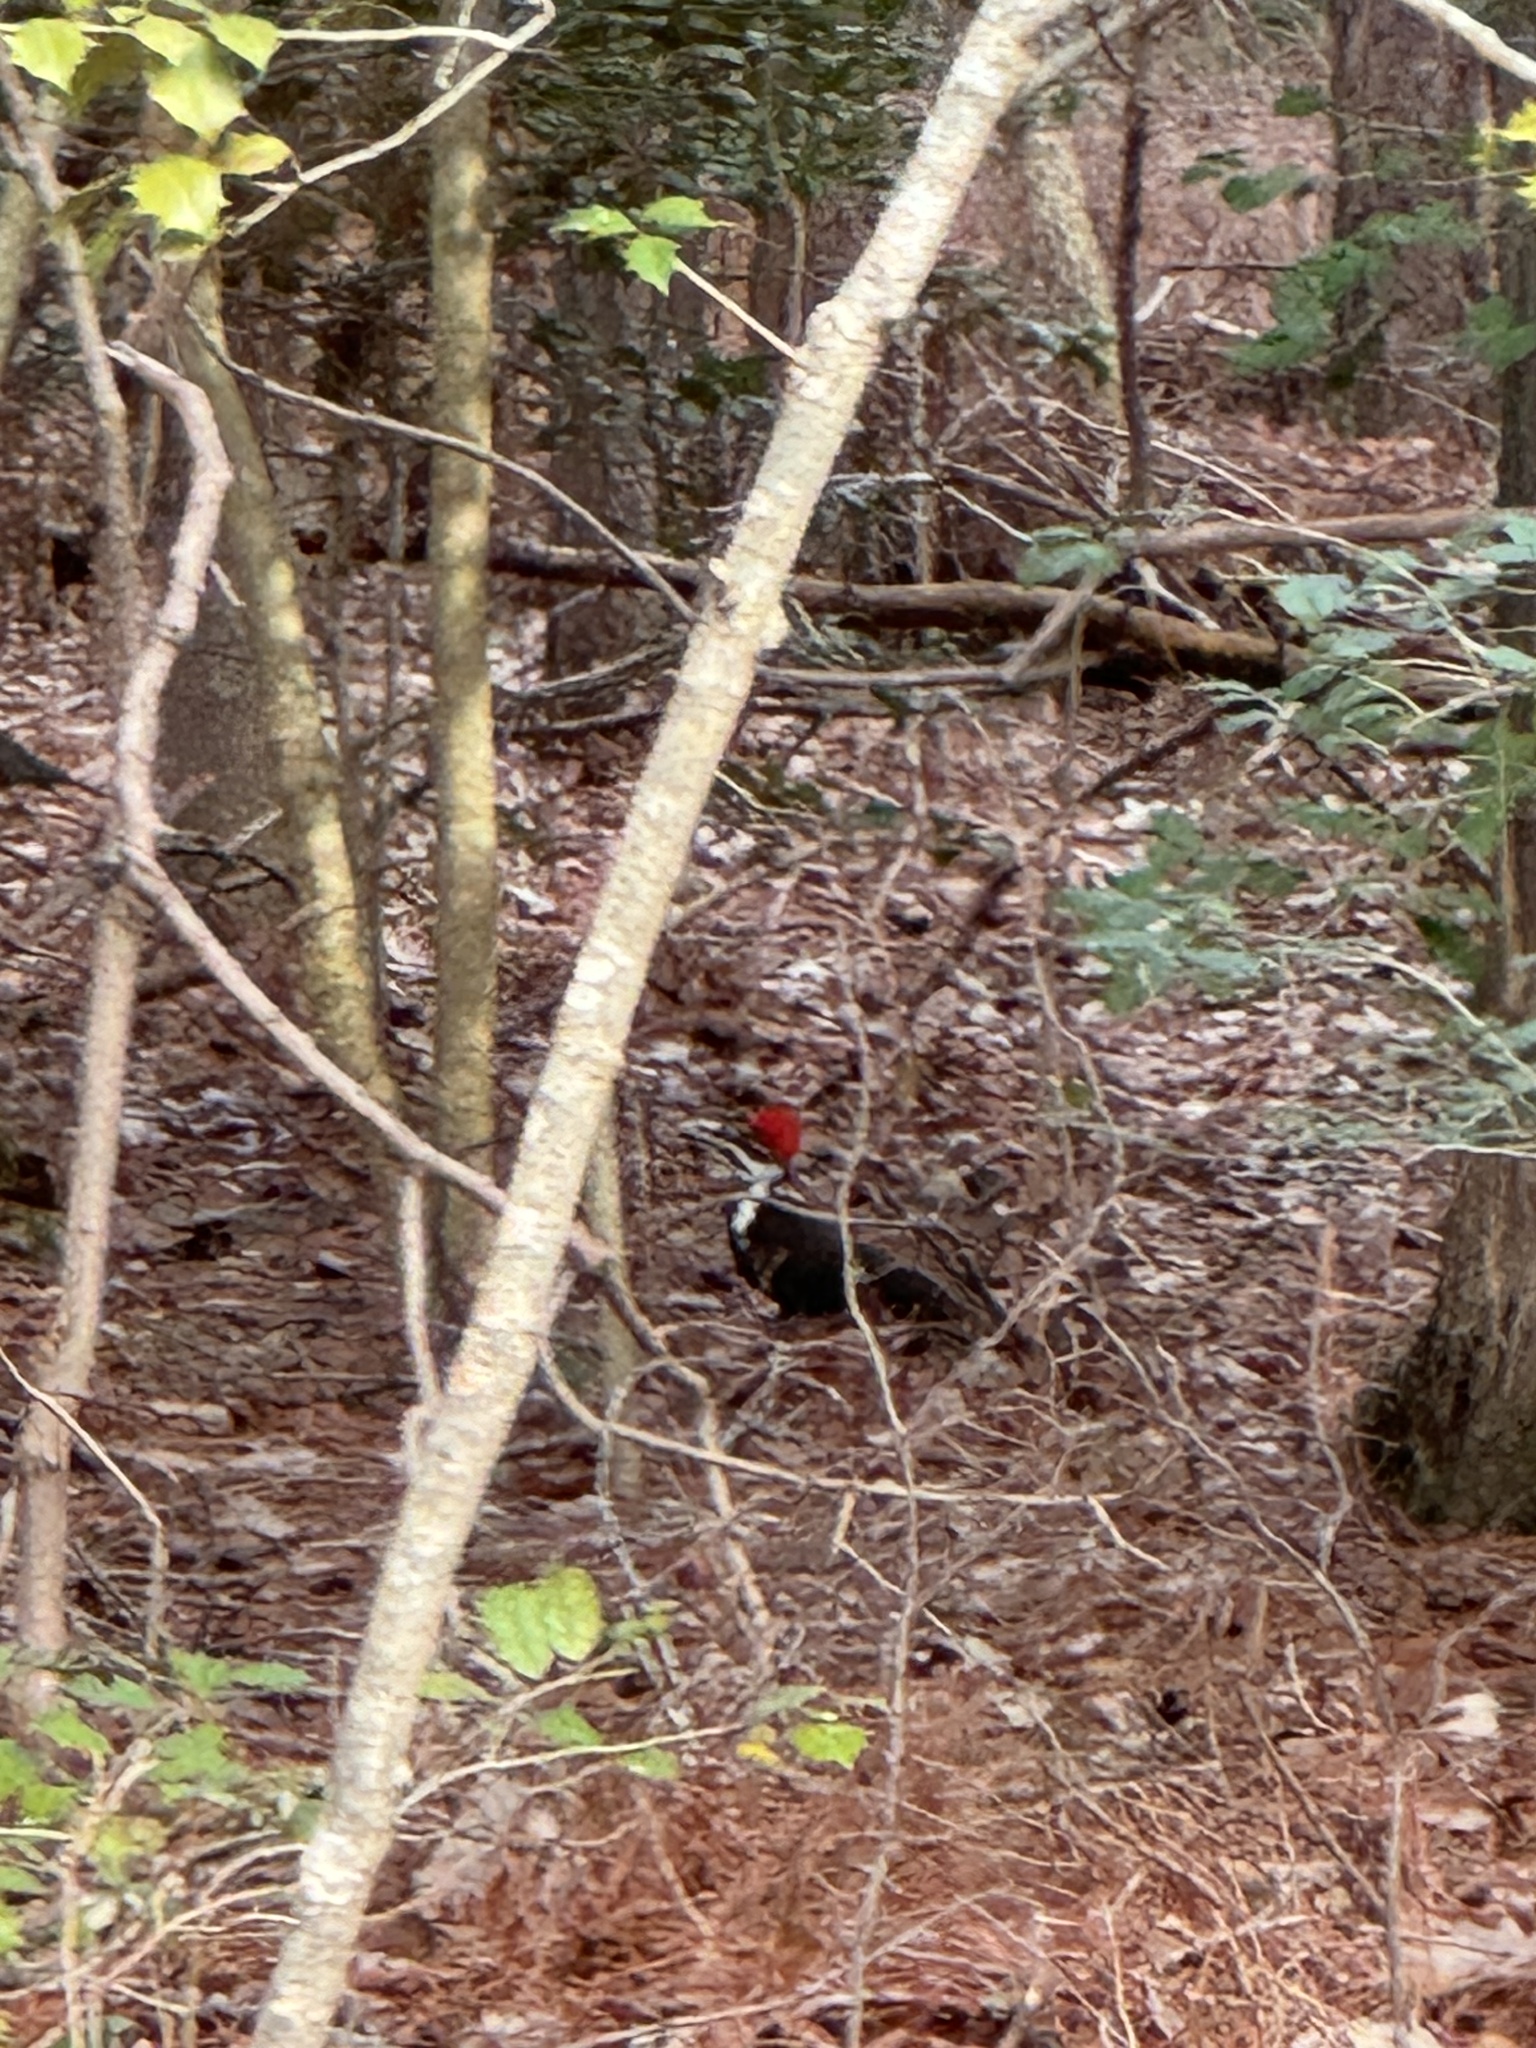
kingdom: Animalia
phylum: Chordata
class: Aves
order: Piciformes
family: Picidae
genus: Dryocopus
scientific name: Dryocopus pileatus
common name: Pileated woodpecker
